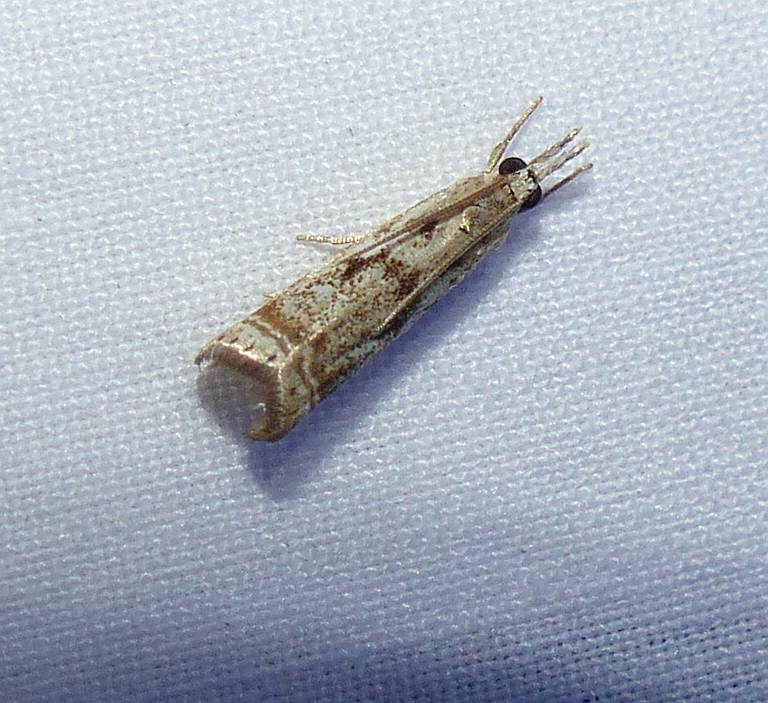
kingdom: Animalia
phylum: Arthropoda
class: Insecta
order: Lepidoptera
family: Crambidae
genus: Microcrambus
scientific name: Microcrambus elegans
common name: Elegant grass-veneer
